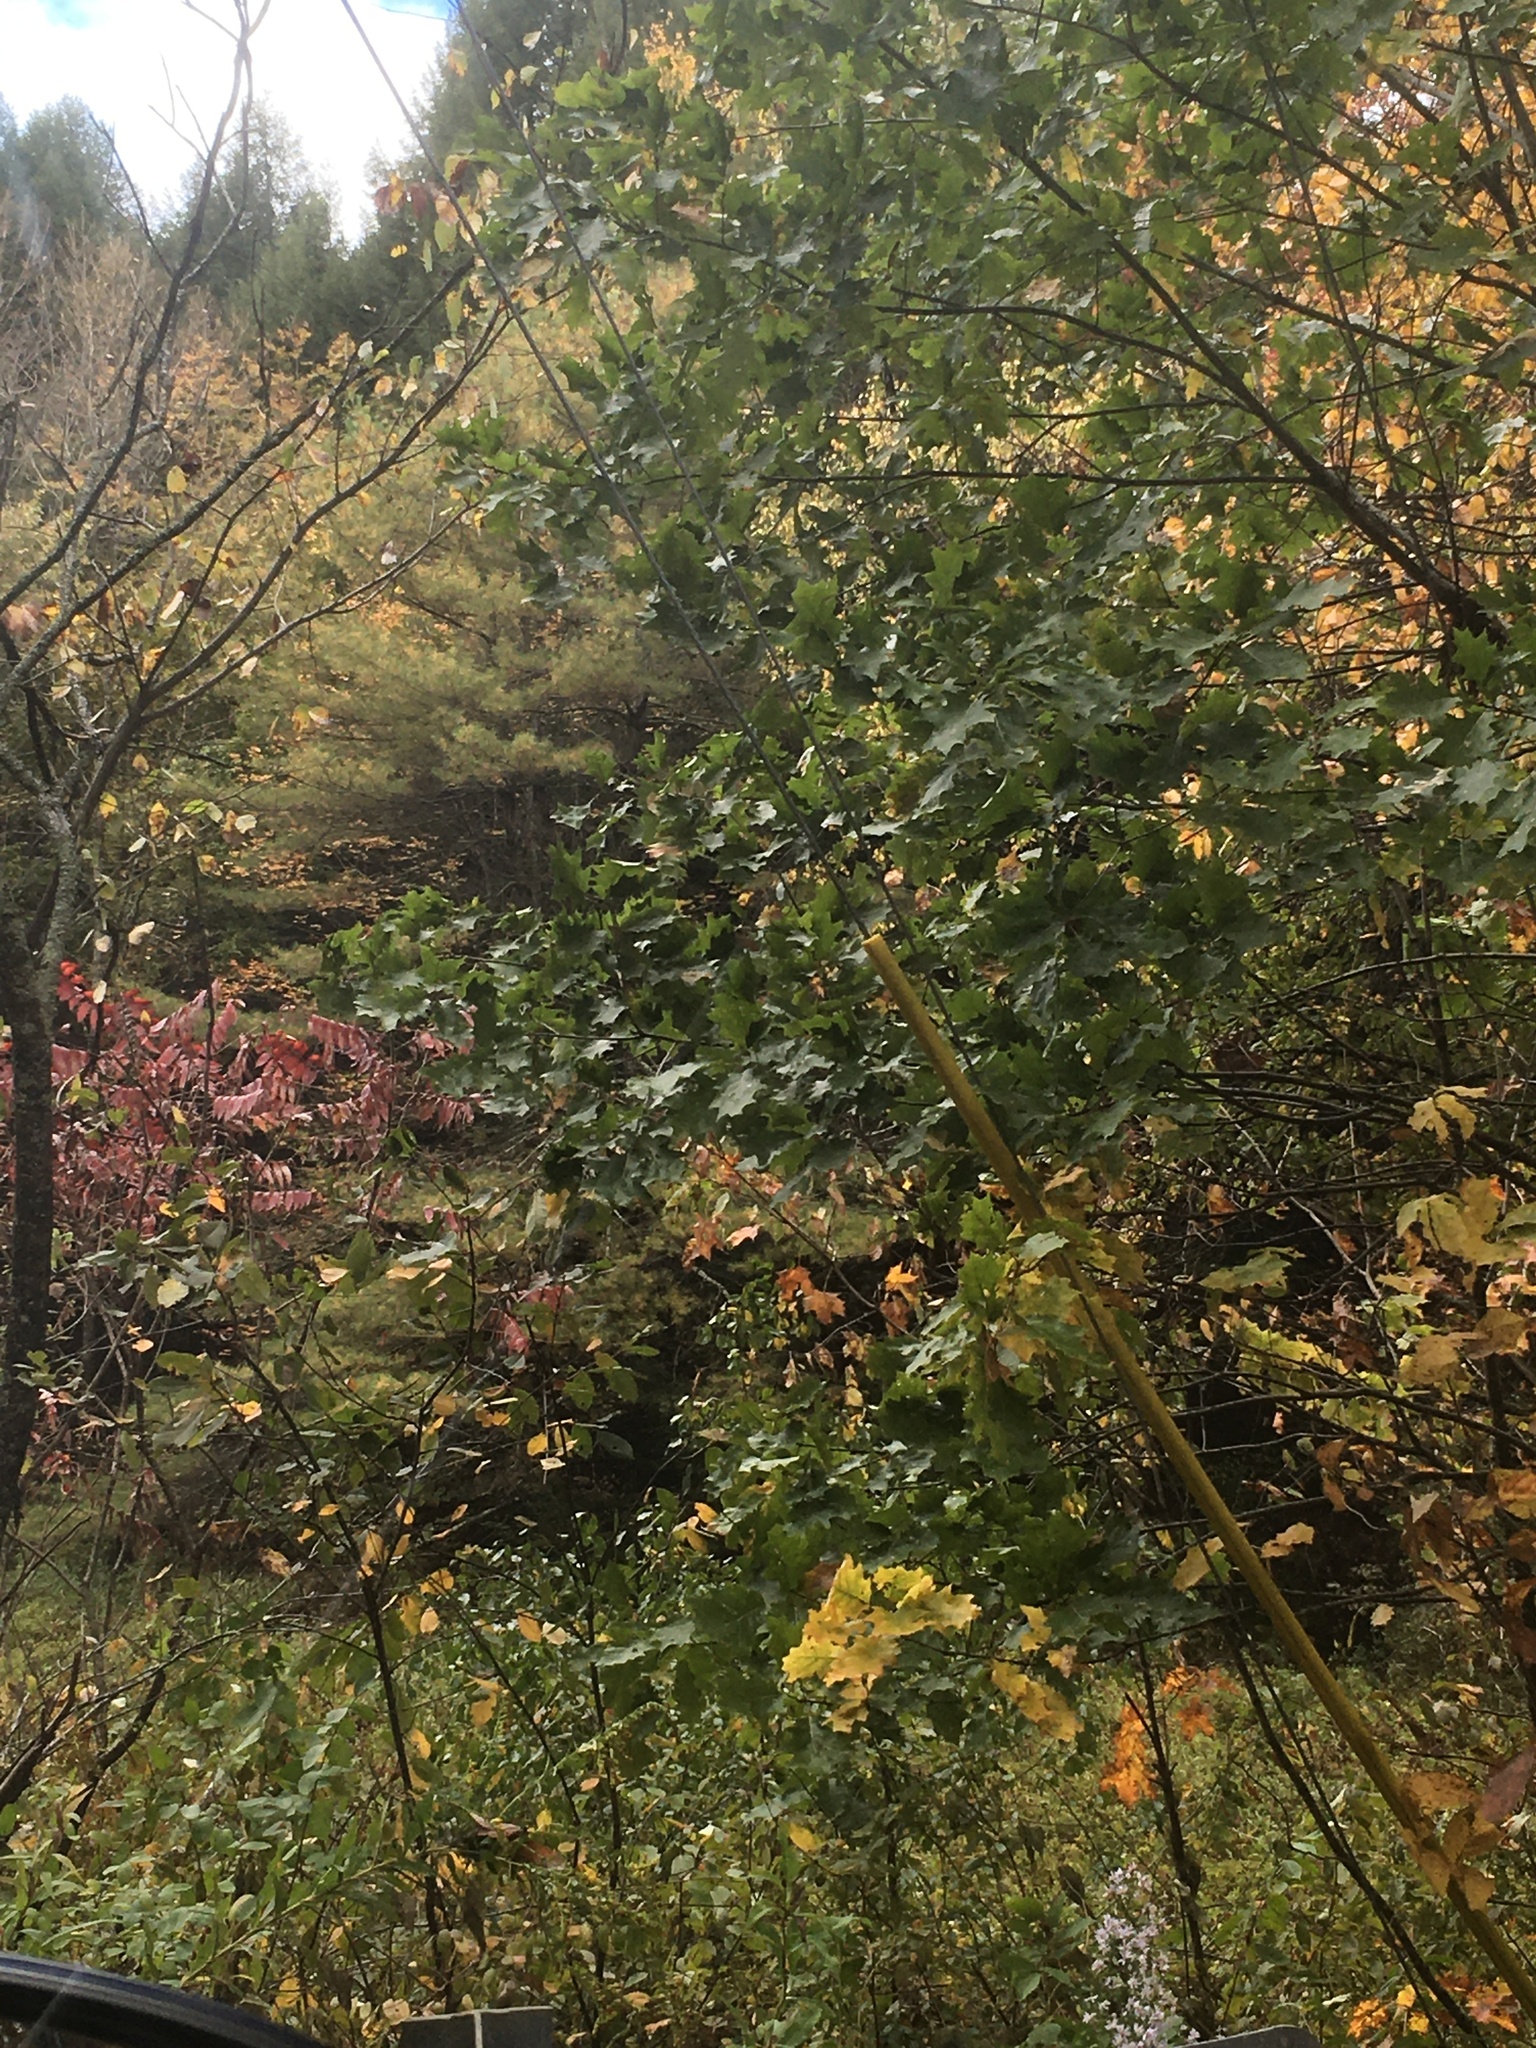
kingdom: Plantae
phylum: Tracheophyta
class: Magnoliopsida
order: Fagales
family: Fagaceae
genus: Quercus
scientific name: Quercus rubra
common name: Red oak
